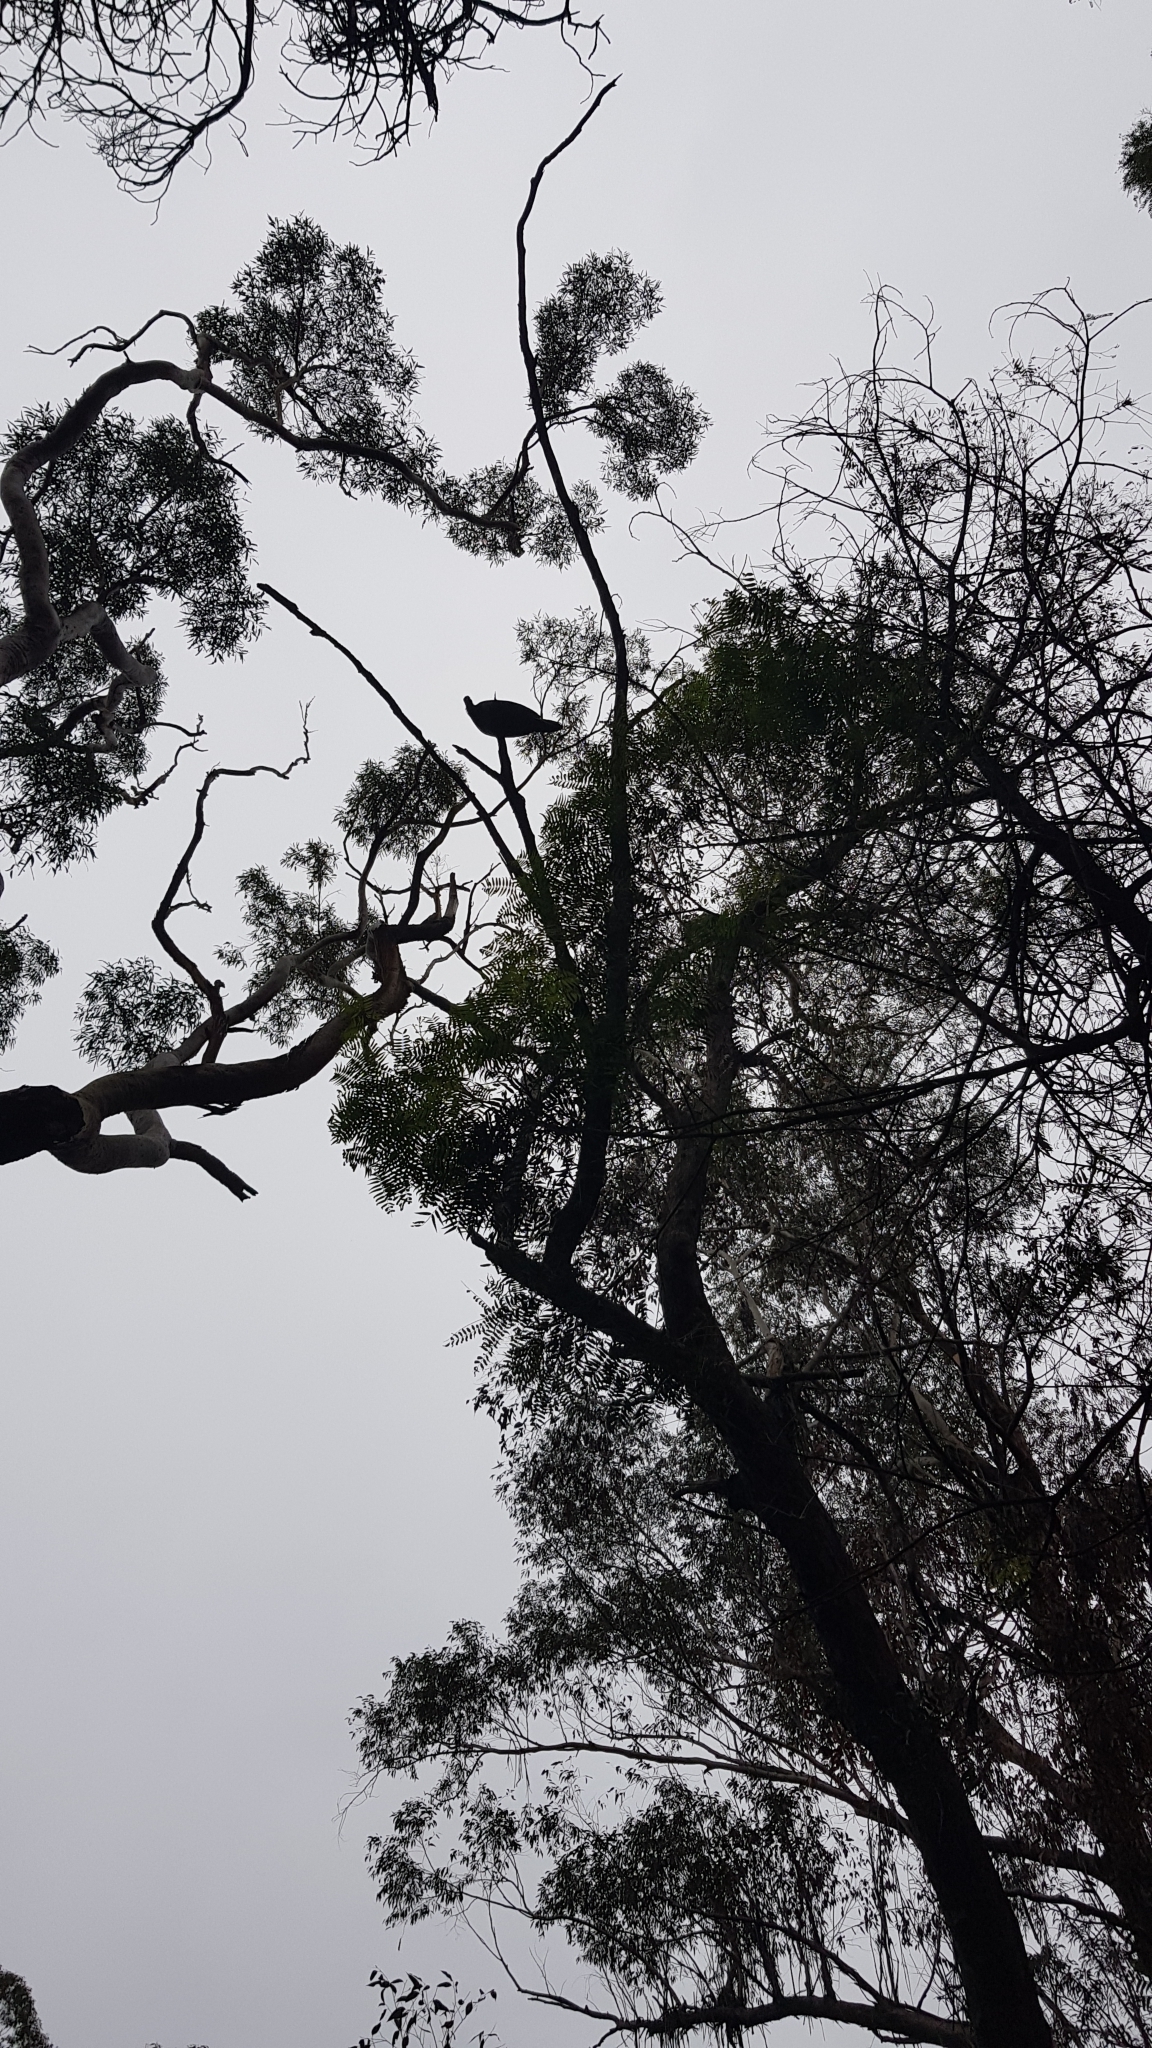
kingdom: Animalia
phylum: Chordata
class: Aves
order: Galliformes
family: Megapodiidae
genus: Alectura
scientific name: Alectura lathami
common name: Australian brushturkey
